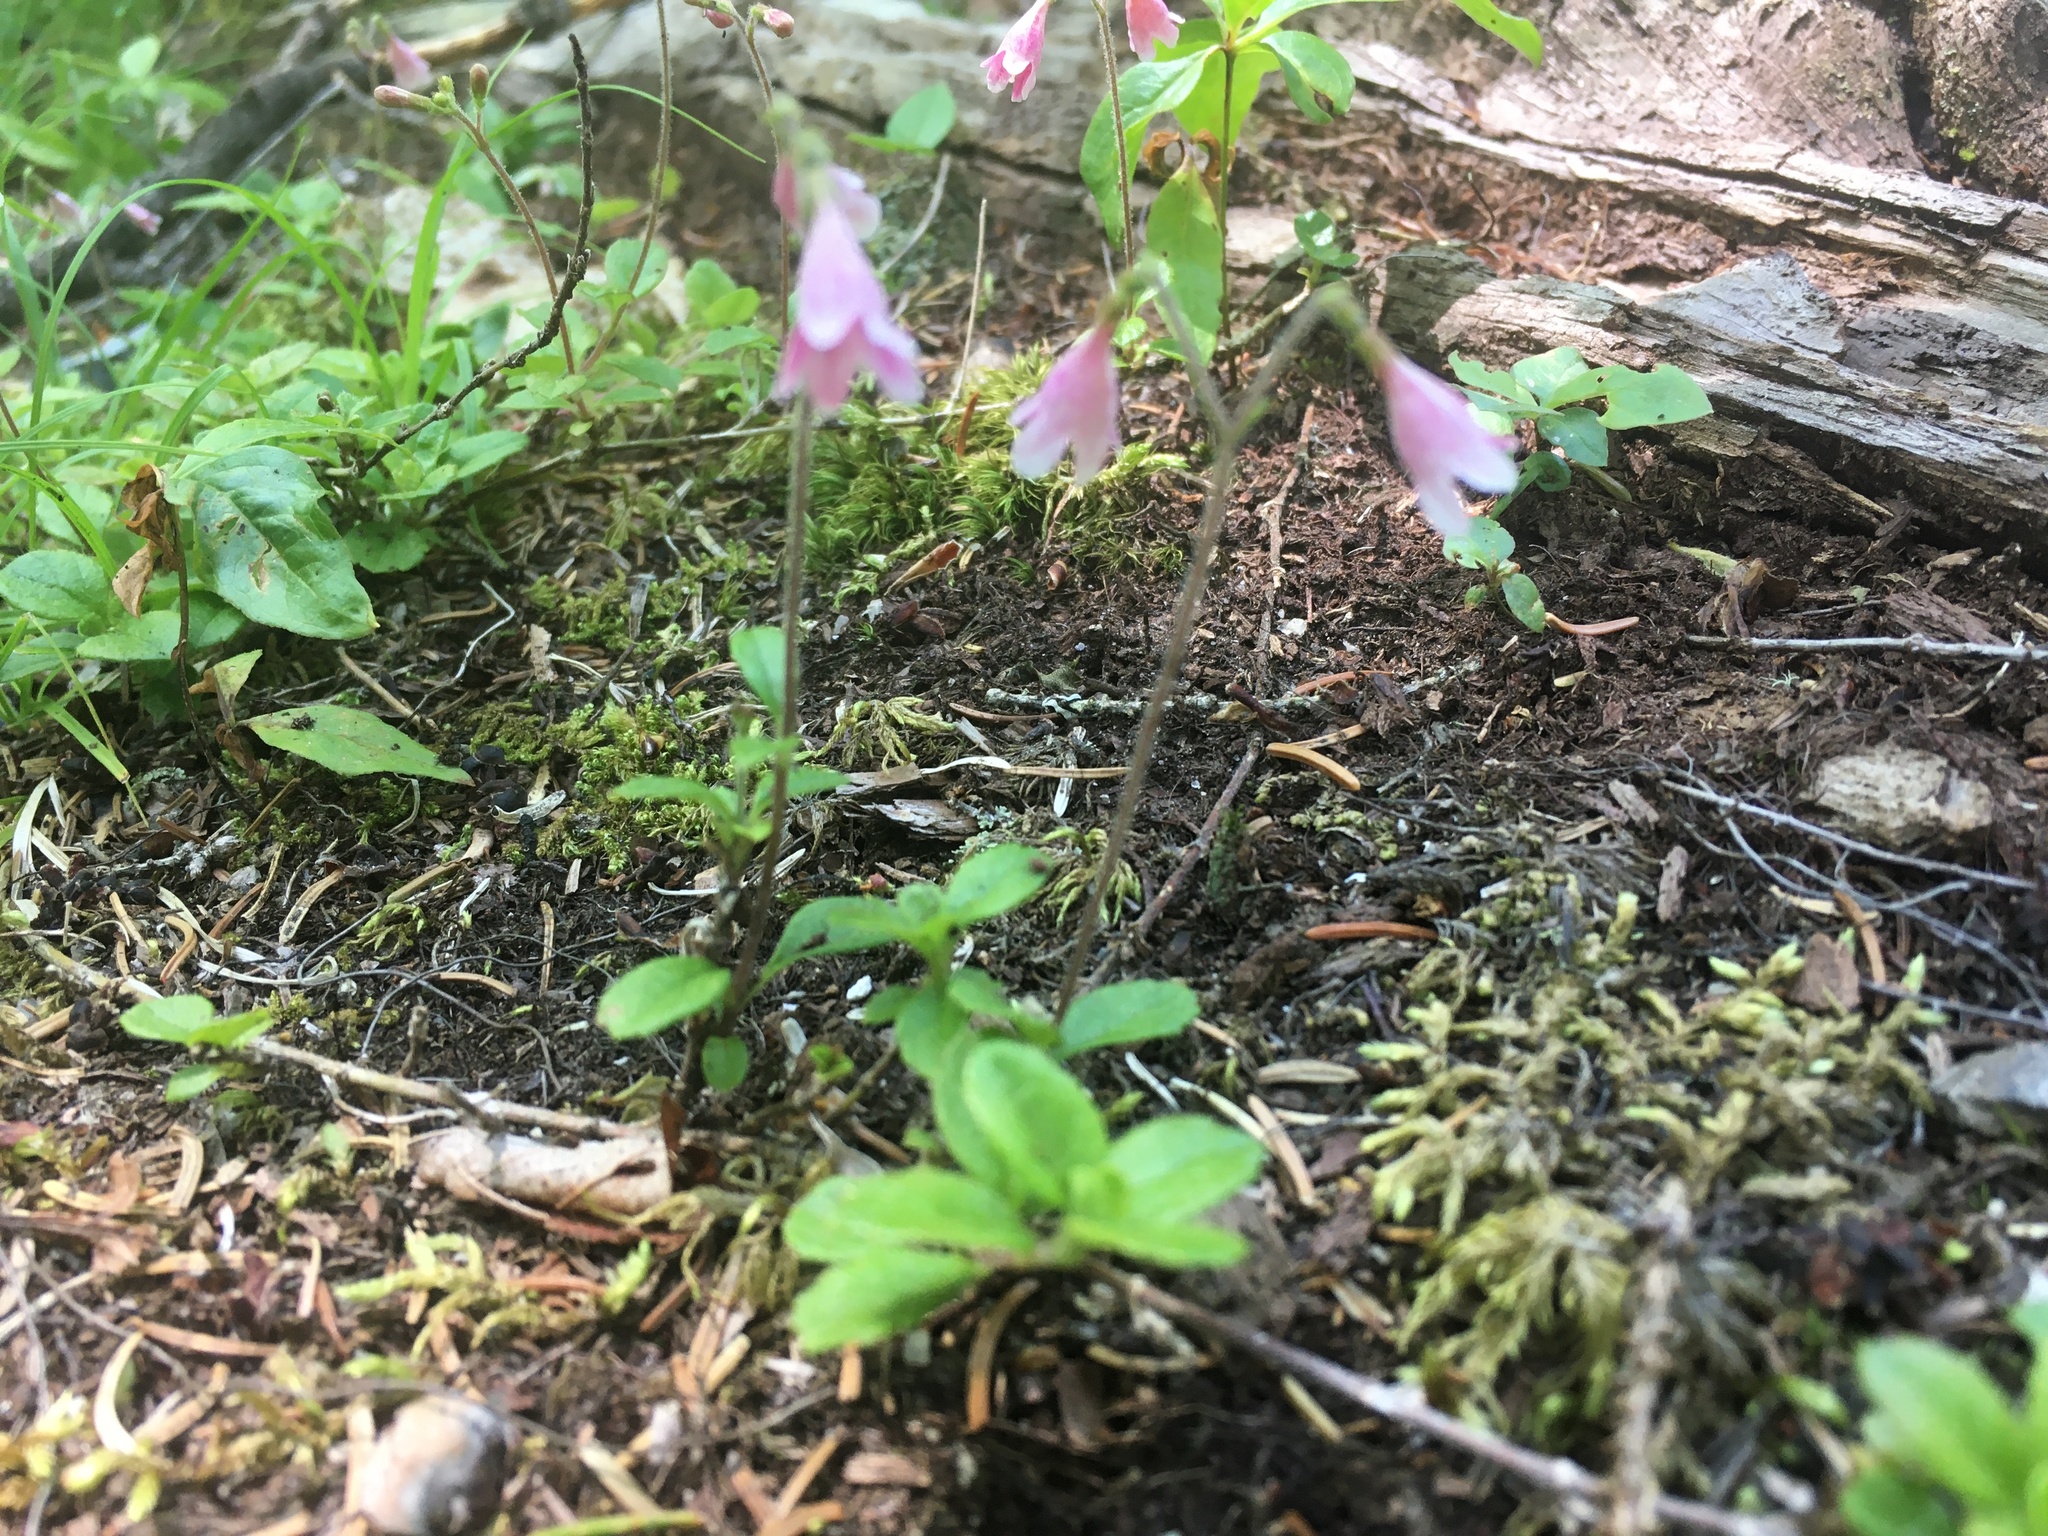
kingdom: Plantae
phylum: Tracheophyta
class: Magnoliopsida
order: Dipsacales
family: Caprifoliaceae
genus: Linnaea
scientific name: Linnaea borealis
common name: Twinflower
